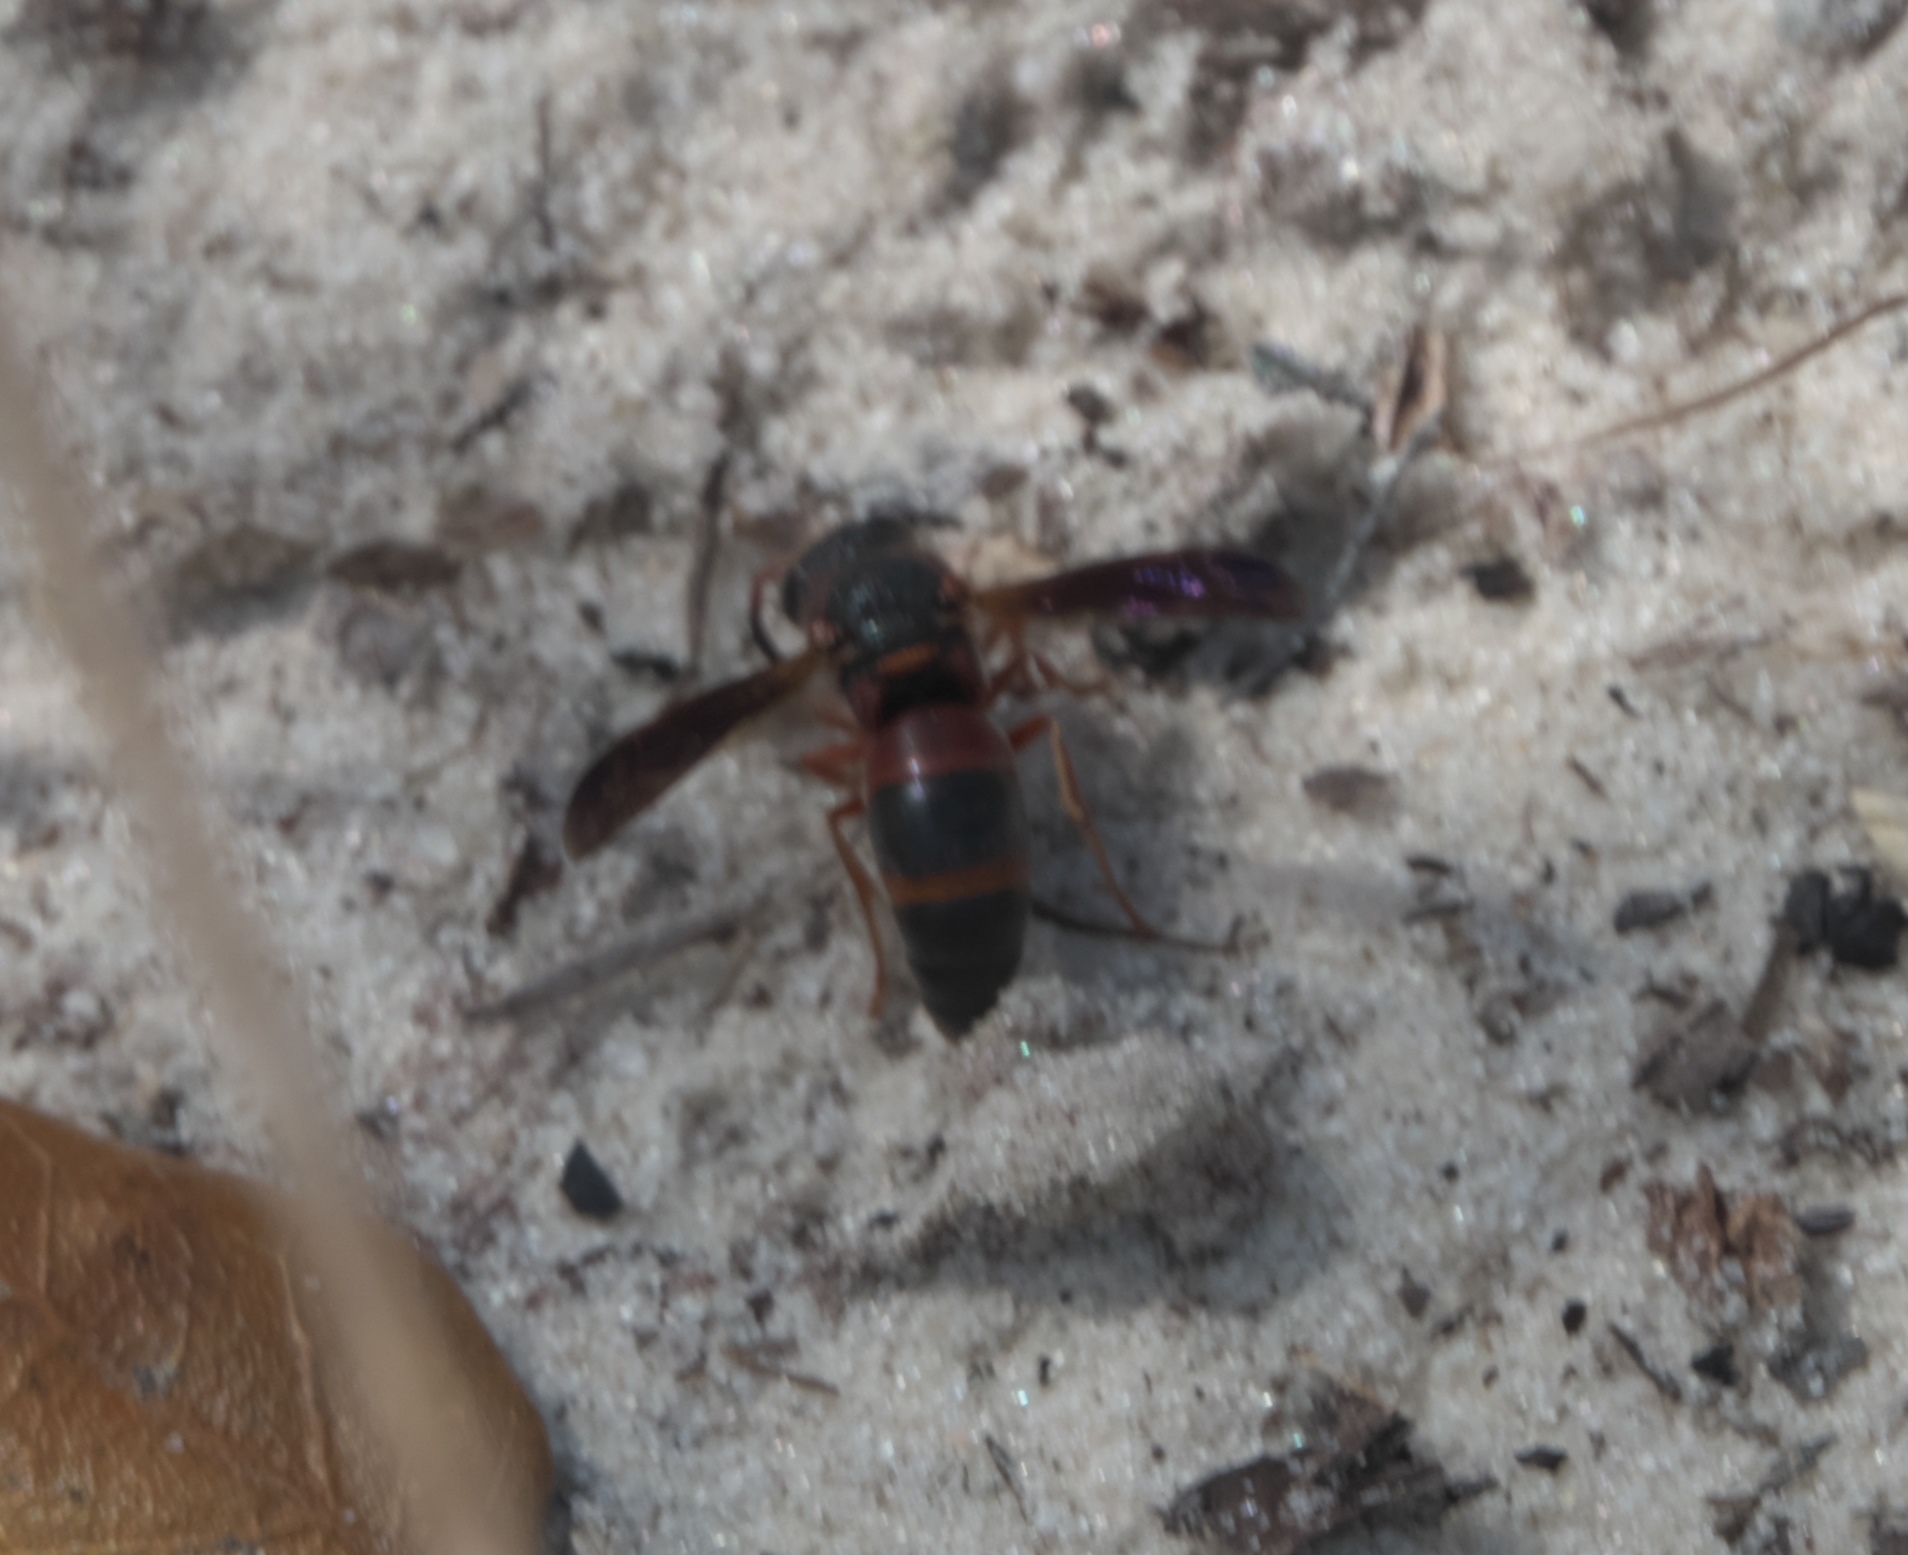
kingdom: Animalia
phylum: Arthropoda
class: Insecta
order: Hymenoptera
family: Eumenidae
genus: Pachodynerus
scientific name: Pachodynerus erynnis
